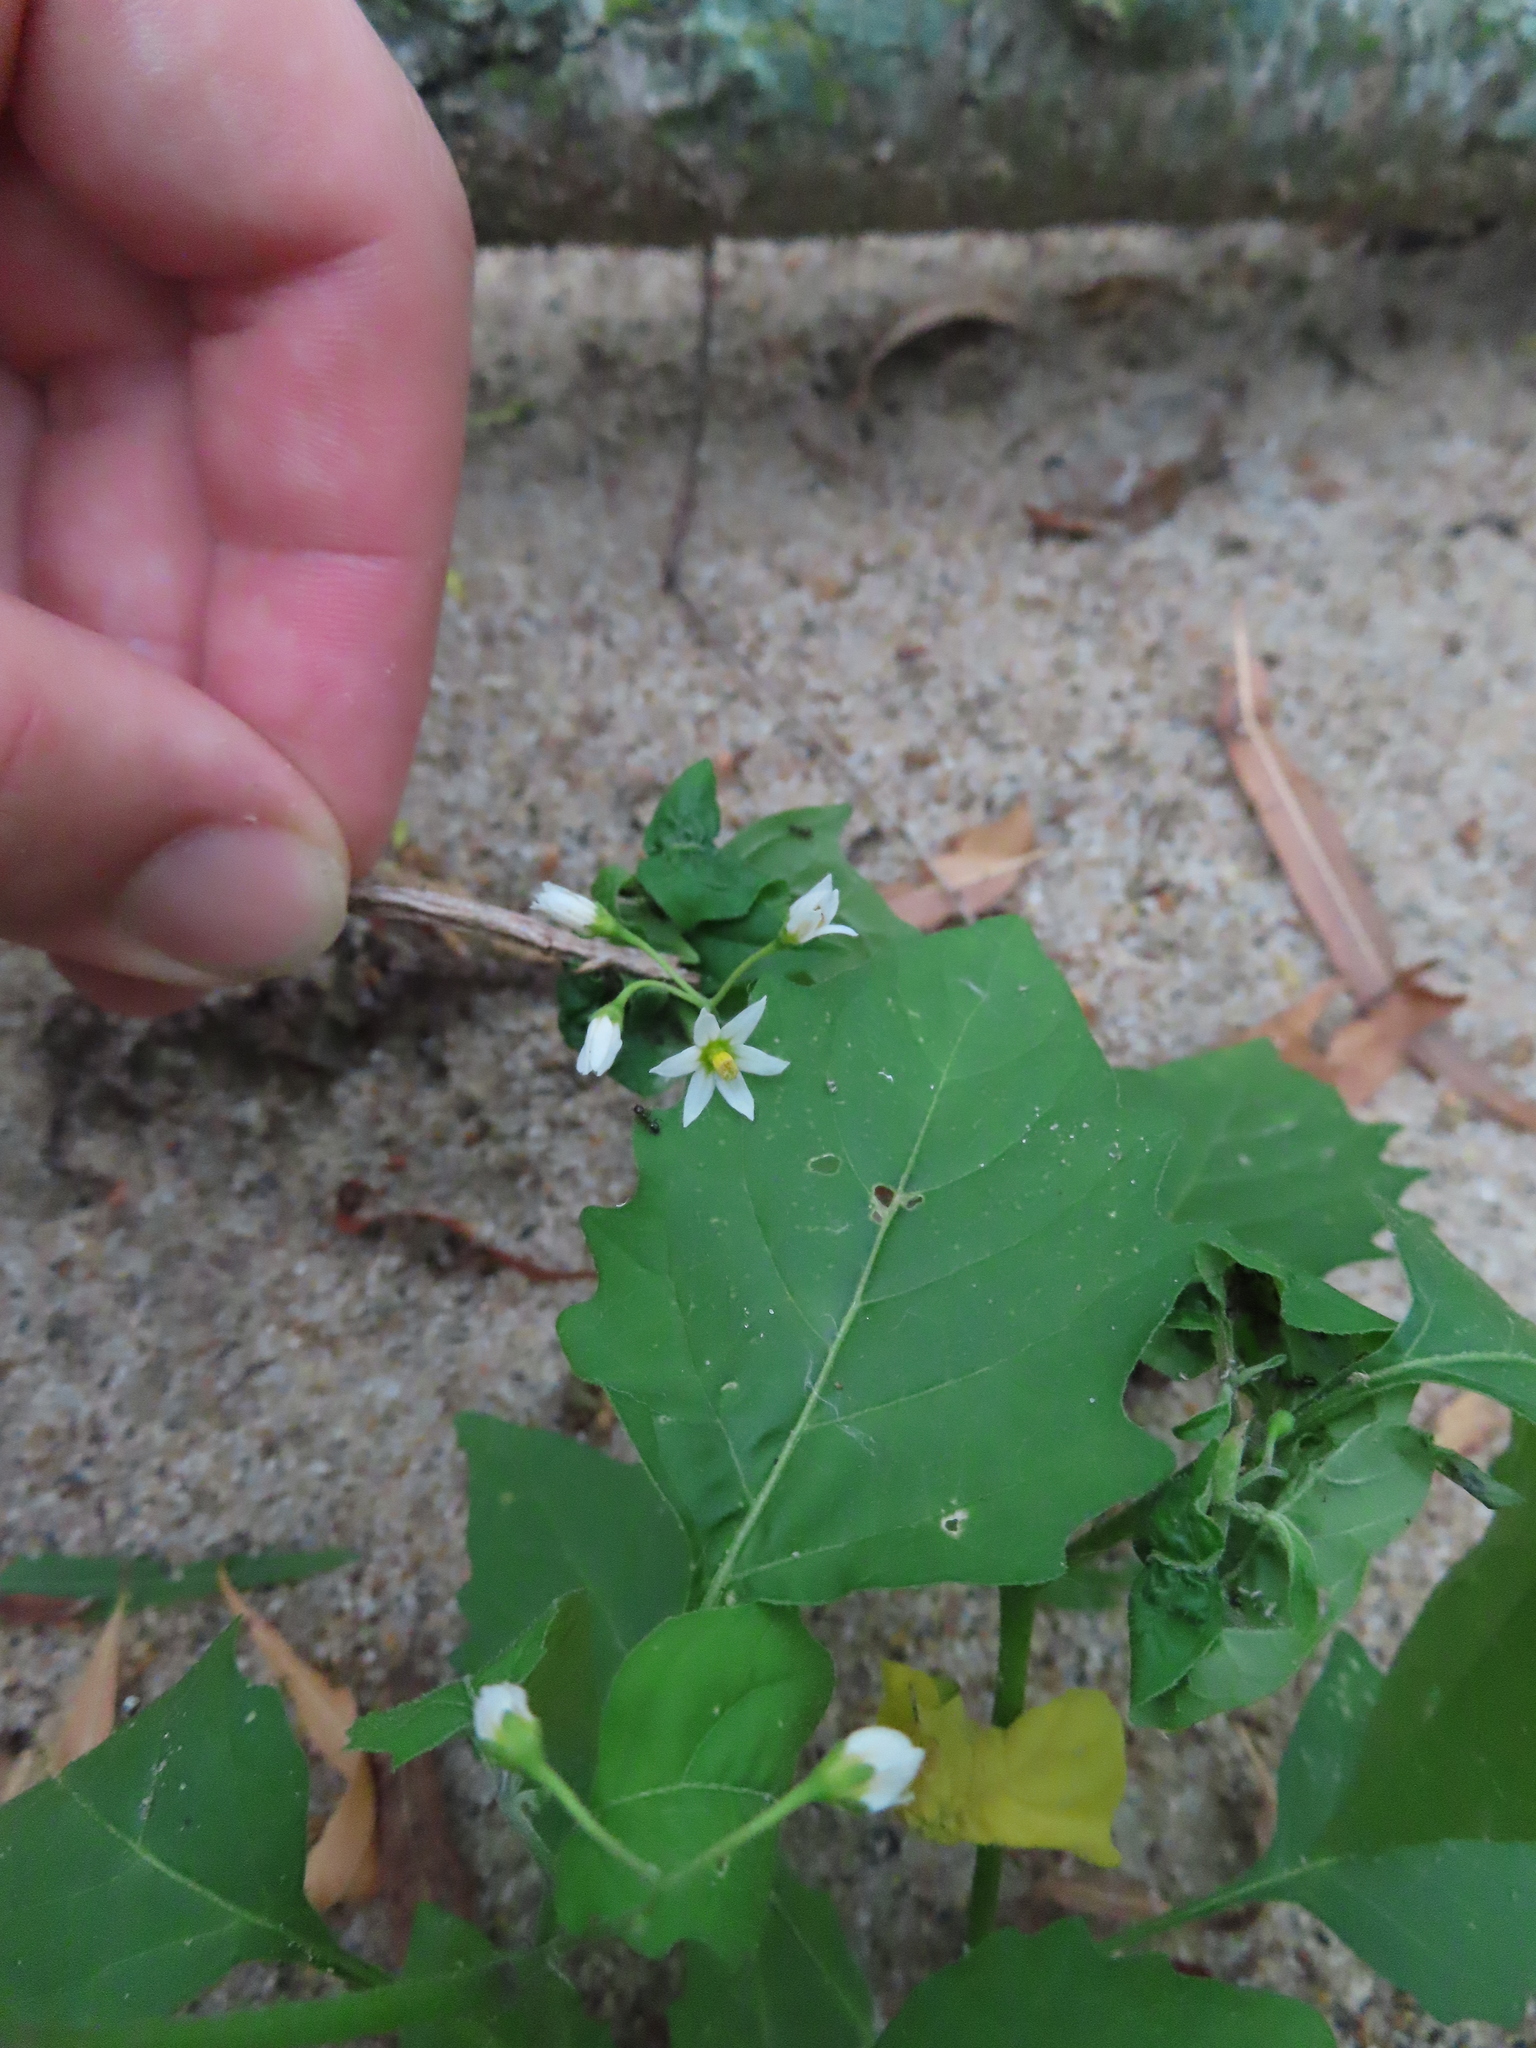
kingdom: Plantae
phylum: Tracheophyta
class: Magnoliopsida
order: Solanales
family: Solanaceae
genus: Solanum
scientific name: Solanum emulans
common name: Eastern black nightshade
